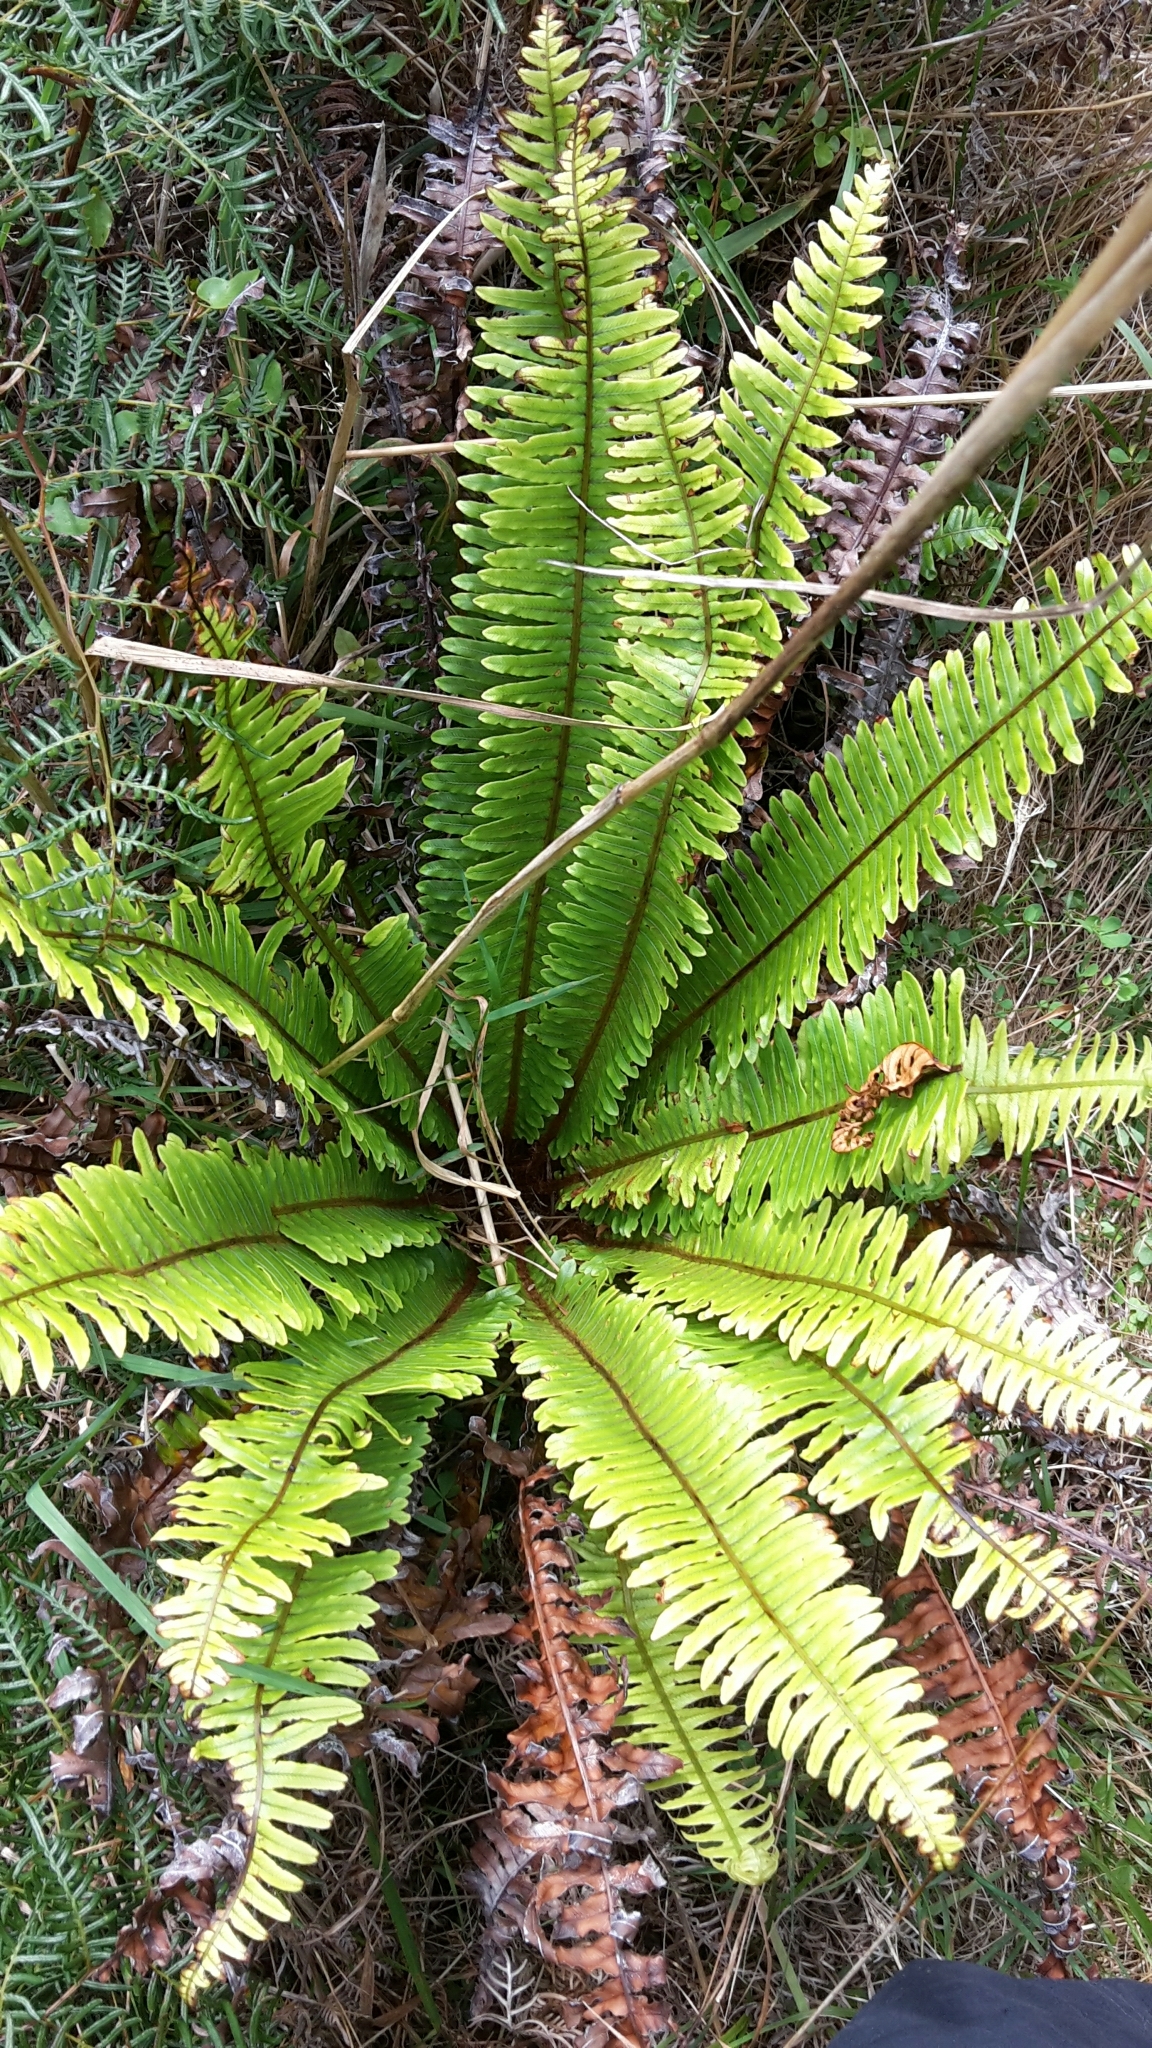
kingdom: Plantae
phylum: Tracheophyta
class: Polypodiopsida
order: Polypodiales
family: Blechnaceae
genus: Lomaria
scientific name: Lomaria discolor
